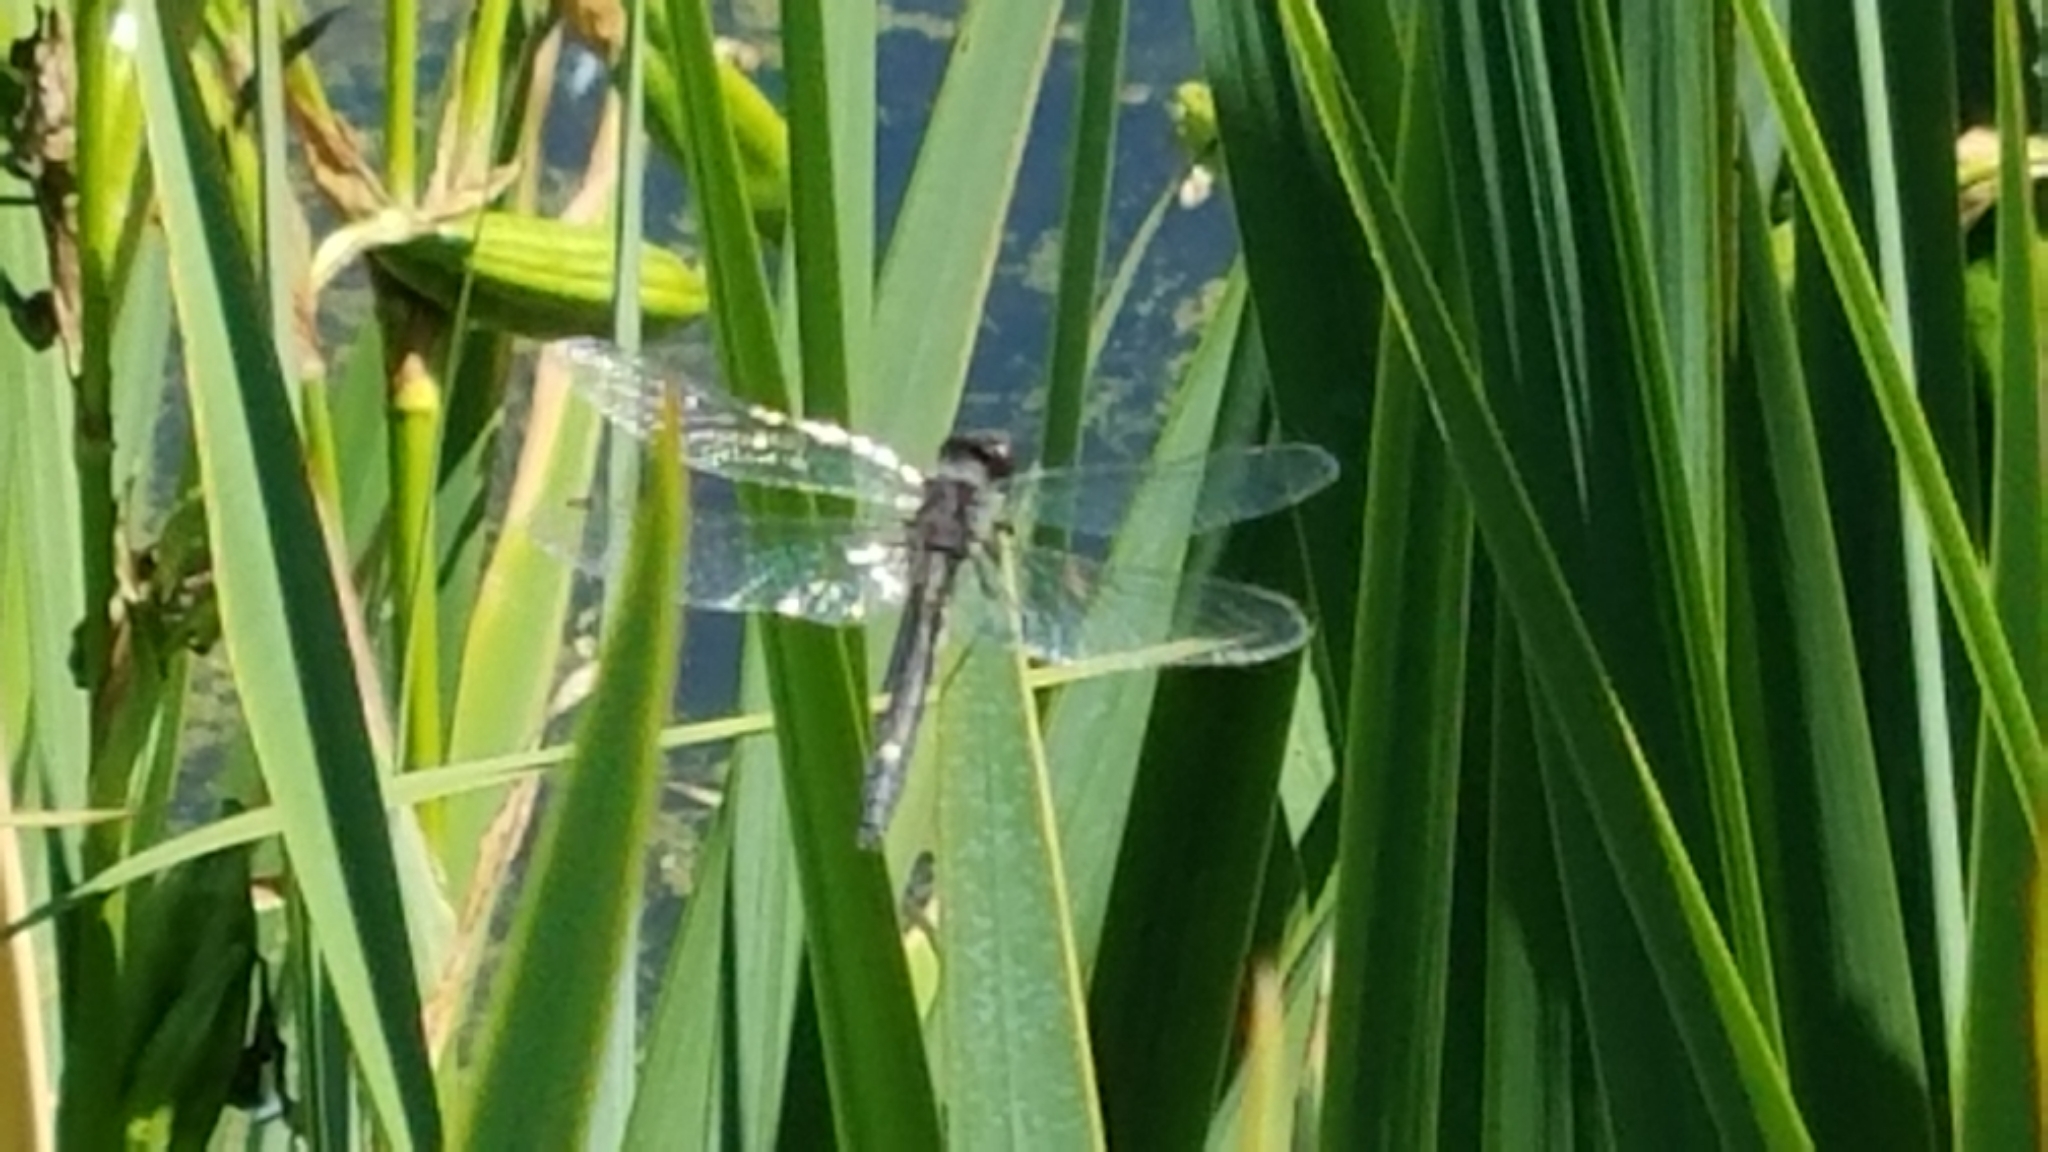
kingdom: Animalia
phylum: Arthropoda
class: Insecta
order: Odonata
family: Libellulidae
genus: Leucorrhinia
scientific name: Leucorrhinia intacta
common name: Dot-tailed whiteface
